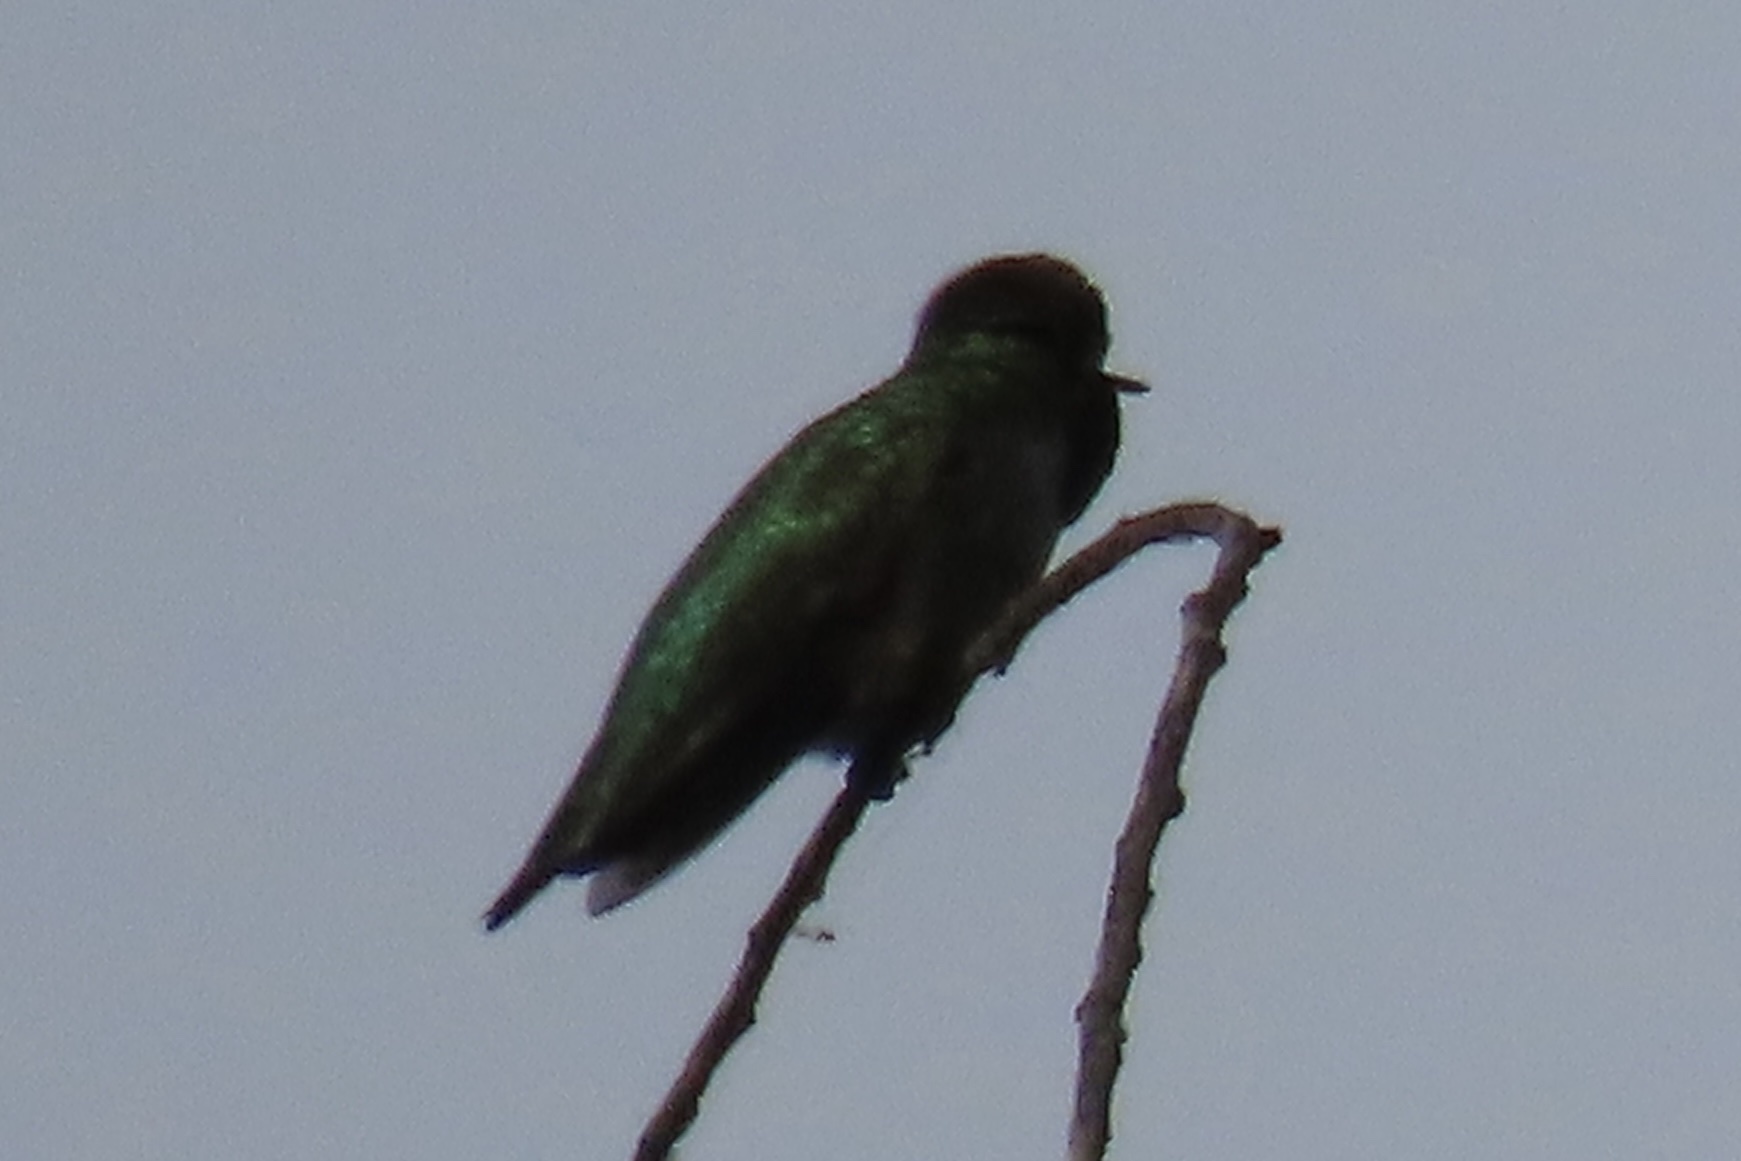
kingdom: Animalia
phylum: Chordata
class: Aves
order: Apodiformes
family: Trochilidae
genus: Calypte
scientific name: Calypte anna
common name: Anna's hummingbird
